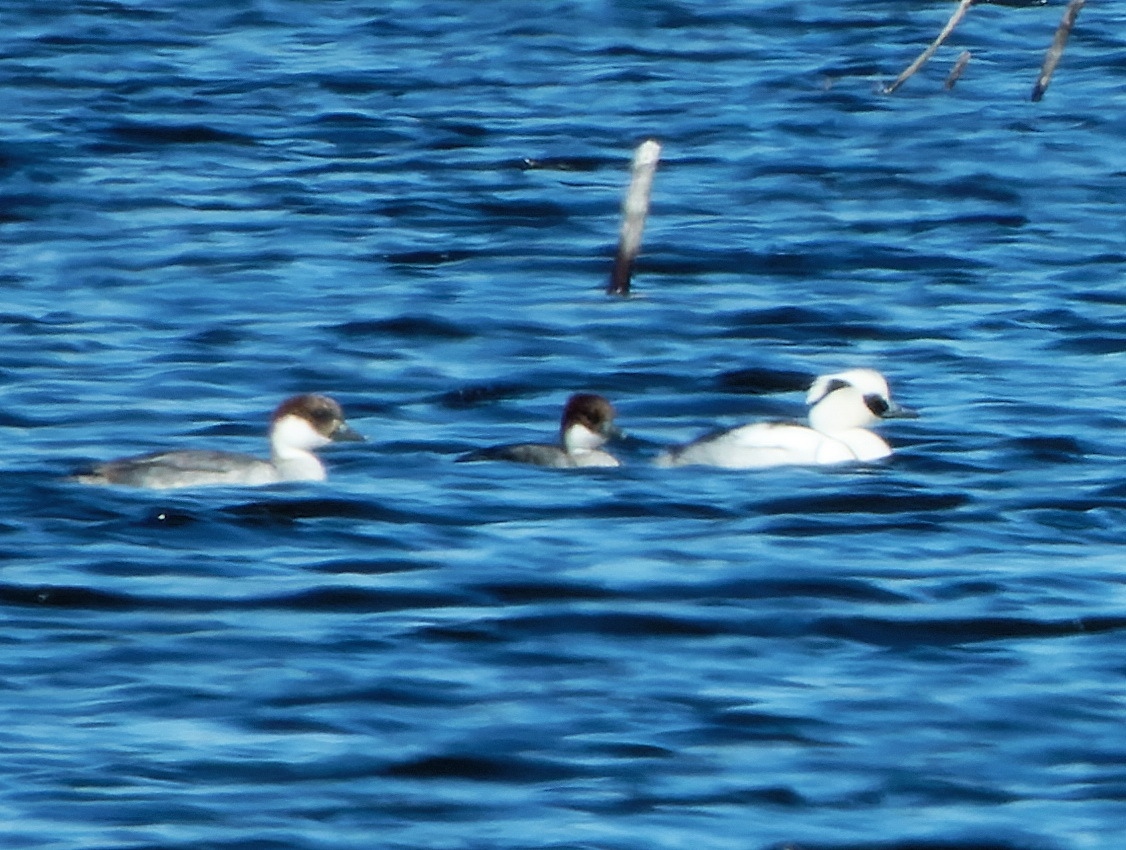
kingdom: Animalia
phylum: Chordata
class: Aves
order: Anseriformes
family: Anatidae
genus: Mergellus
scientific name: Mergellus albellus
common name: Smew
